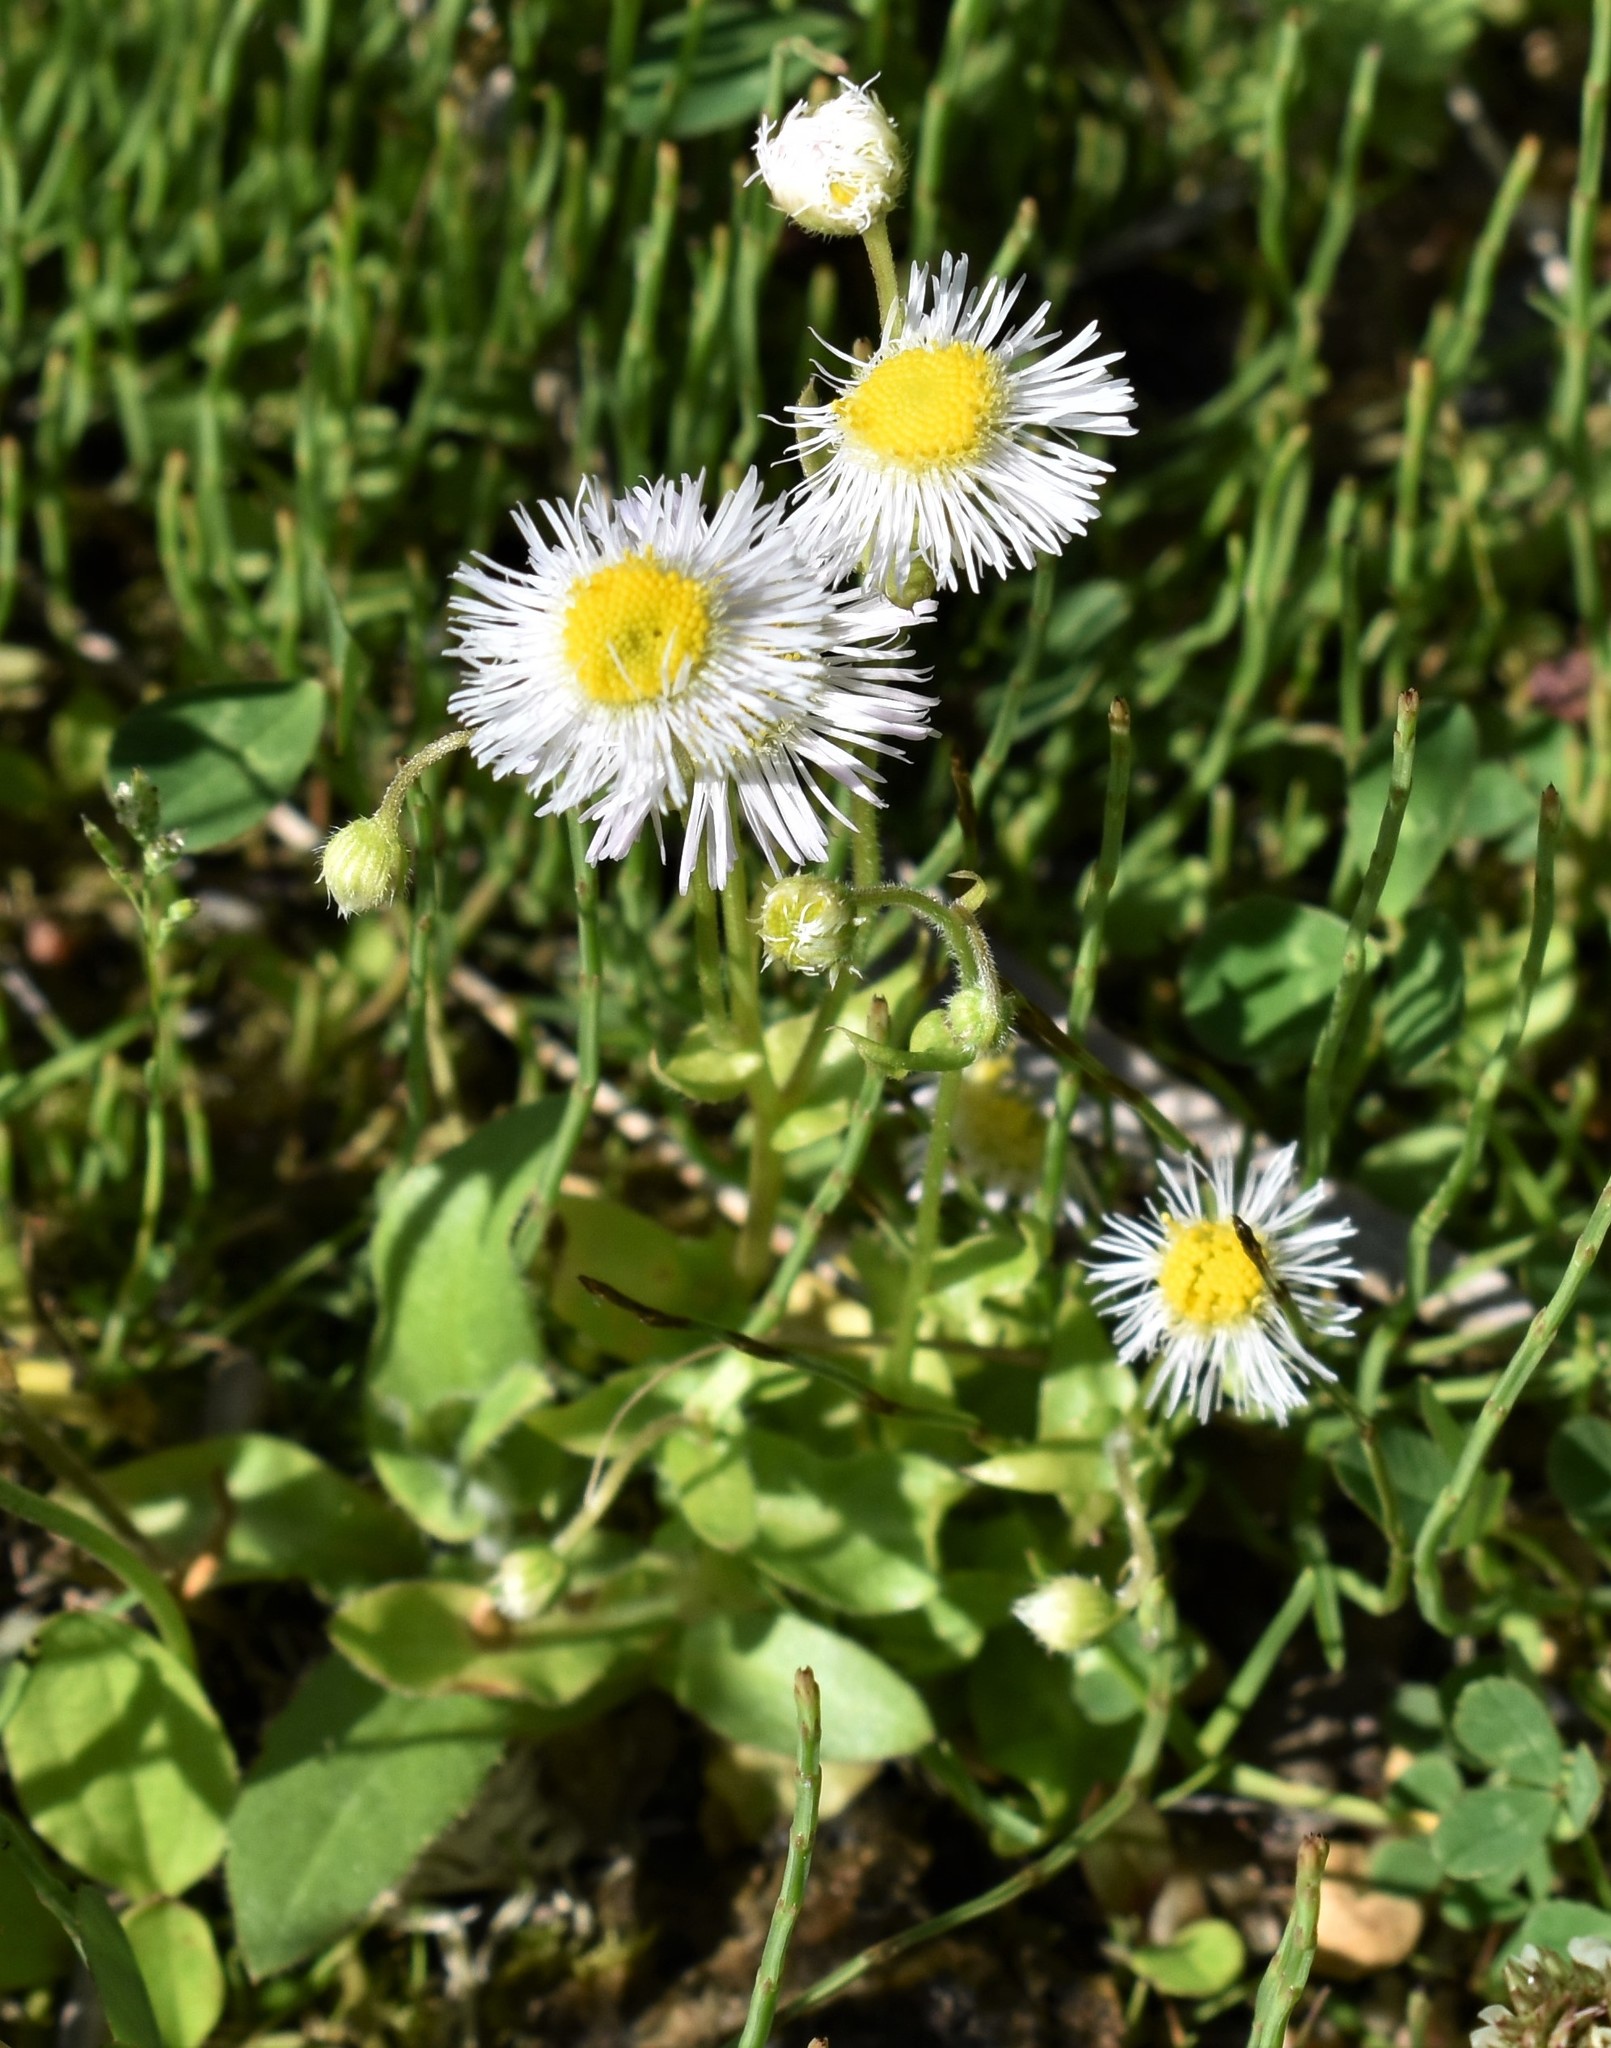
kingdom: Plantae
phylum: Tracheophyta
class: Magnoliopsida
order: Asterales
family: Asteraceae
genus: Erigeron
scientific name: Erigeron philadelphicus
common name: Robin's-plantain
